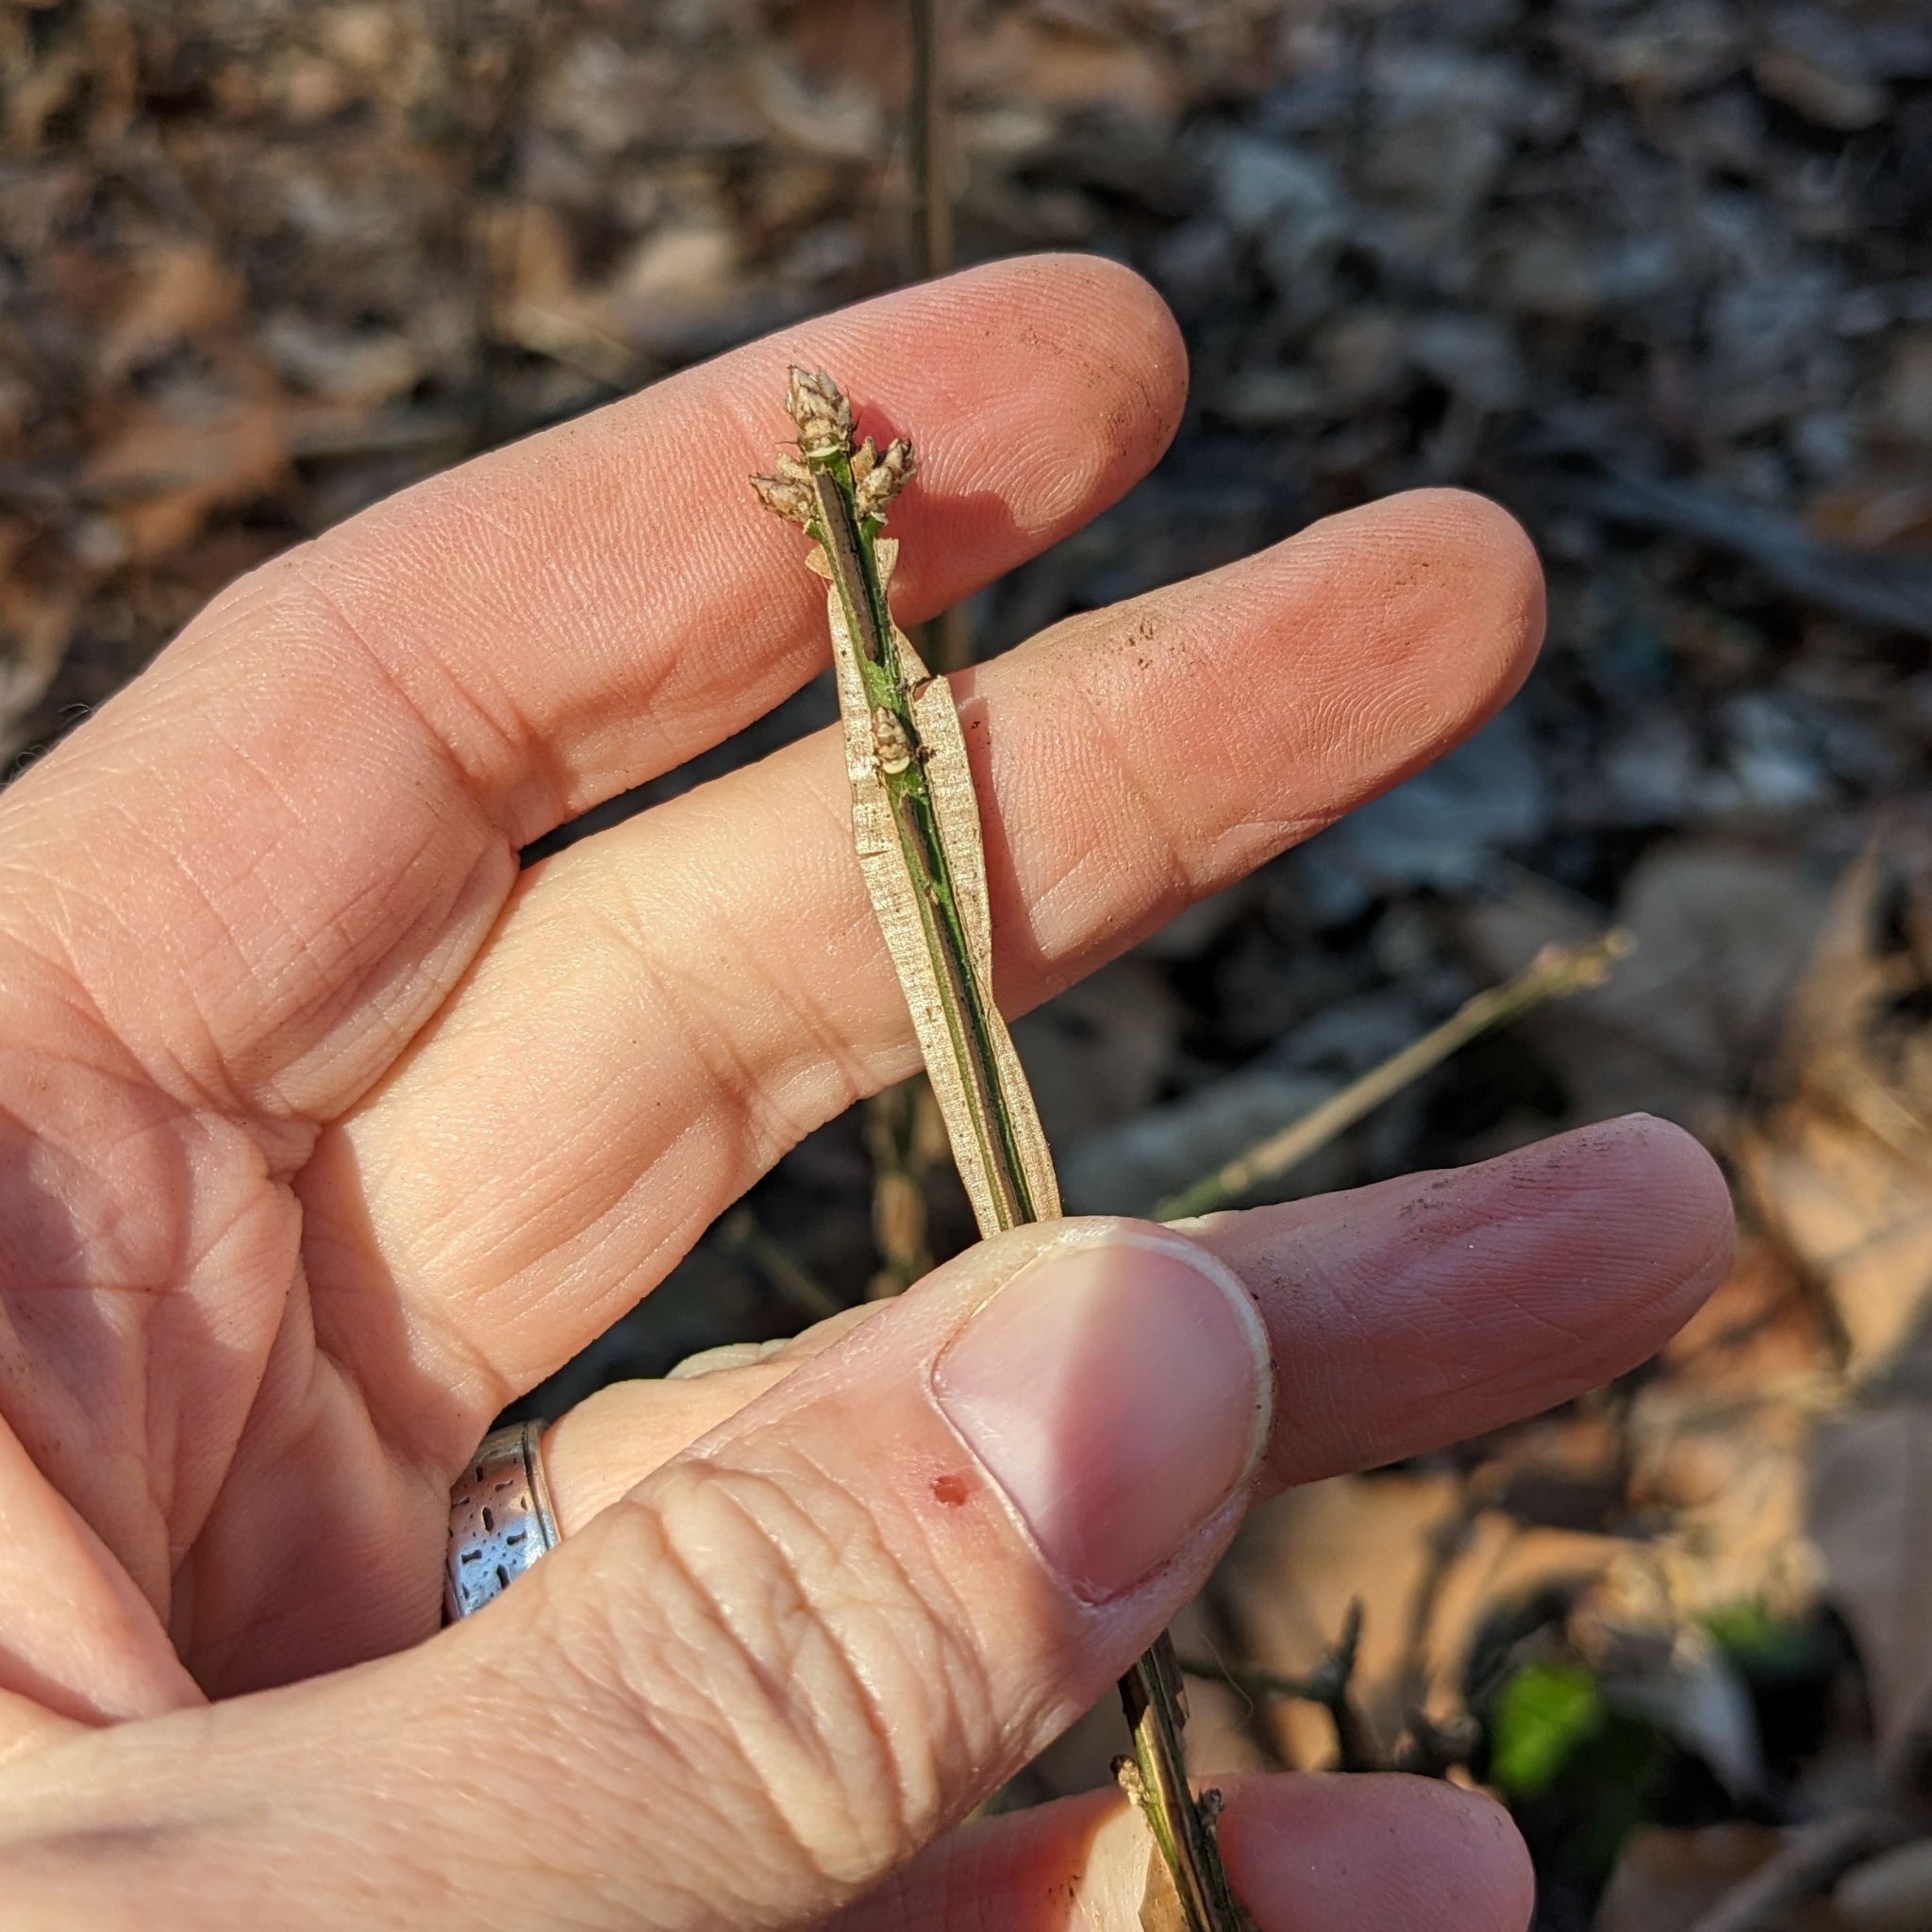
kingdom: Plantae
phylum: Tracheophyta
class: Magnoliopsida
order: Celastrales
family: Celastraceae
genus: Euonymus
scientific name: Euonymus alatus
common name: Winged euonymus
